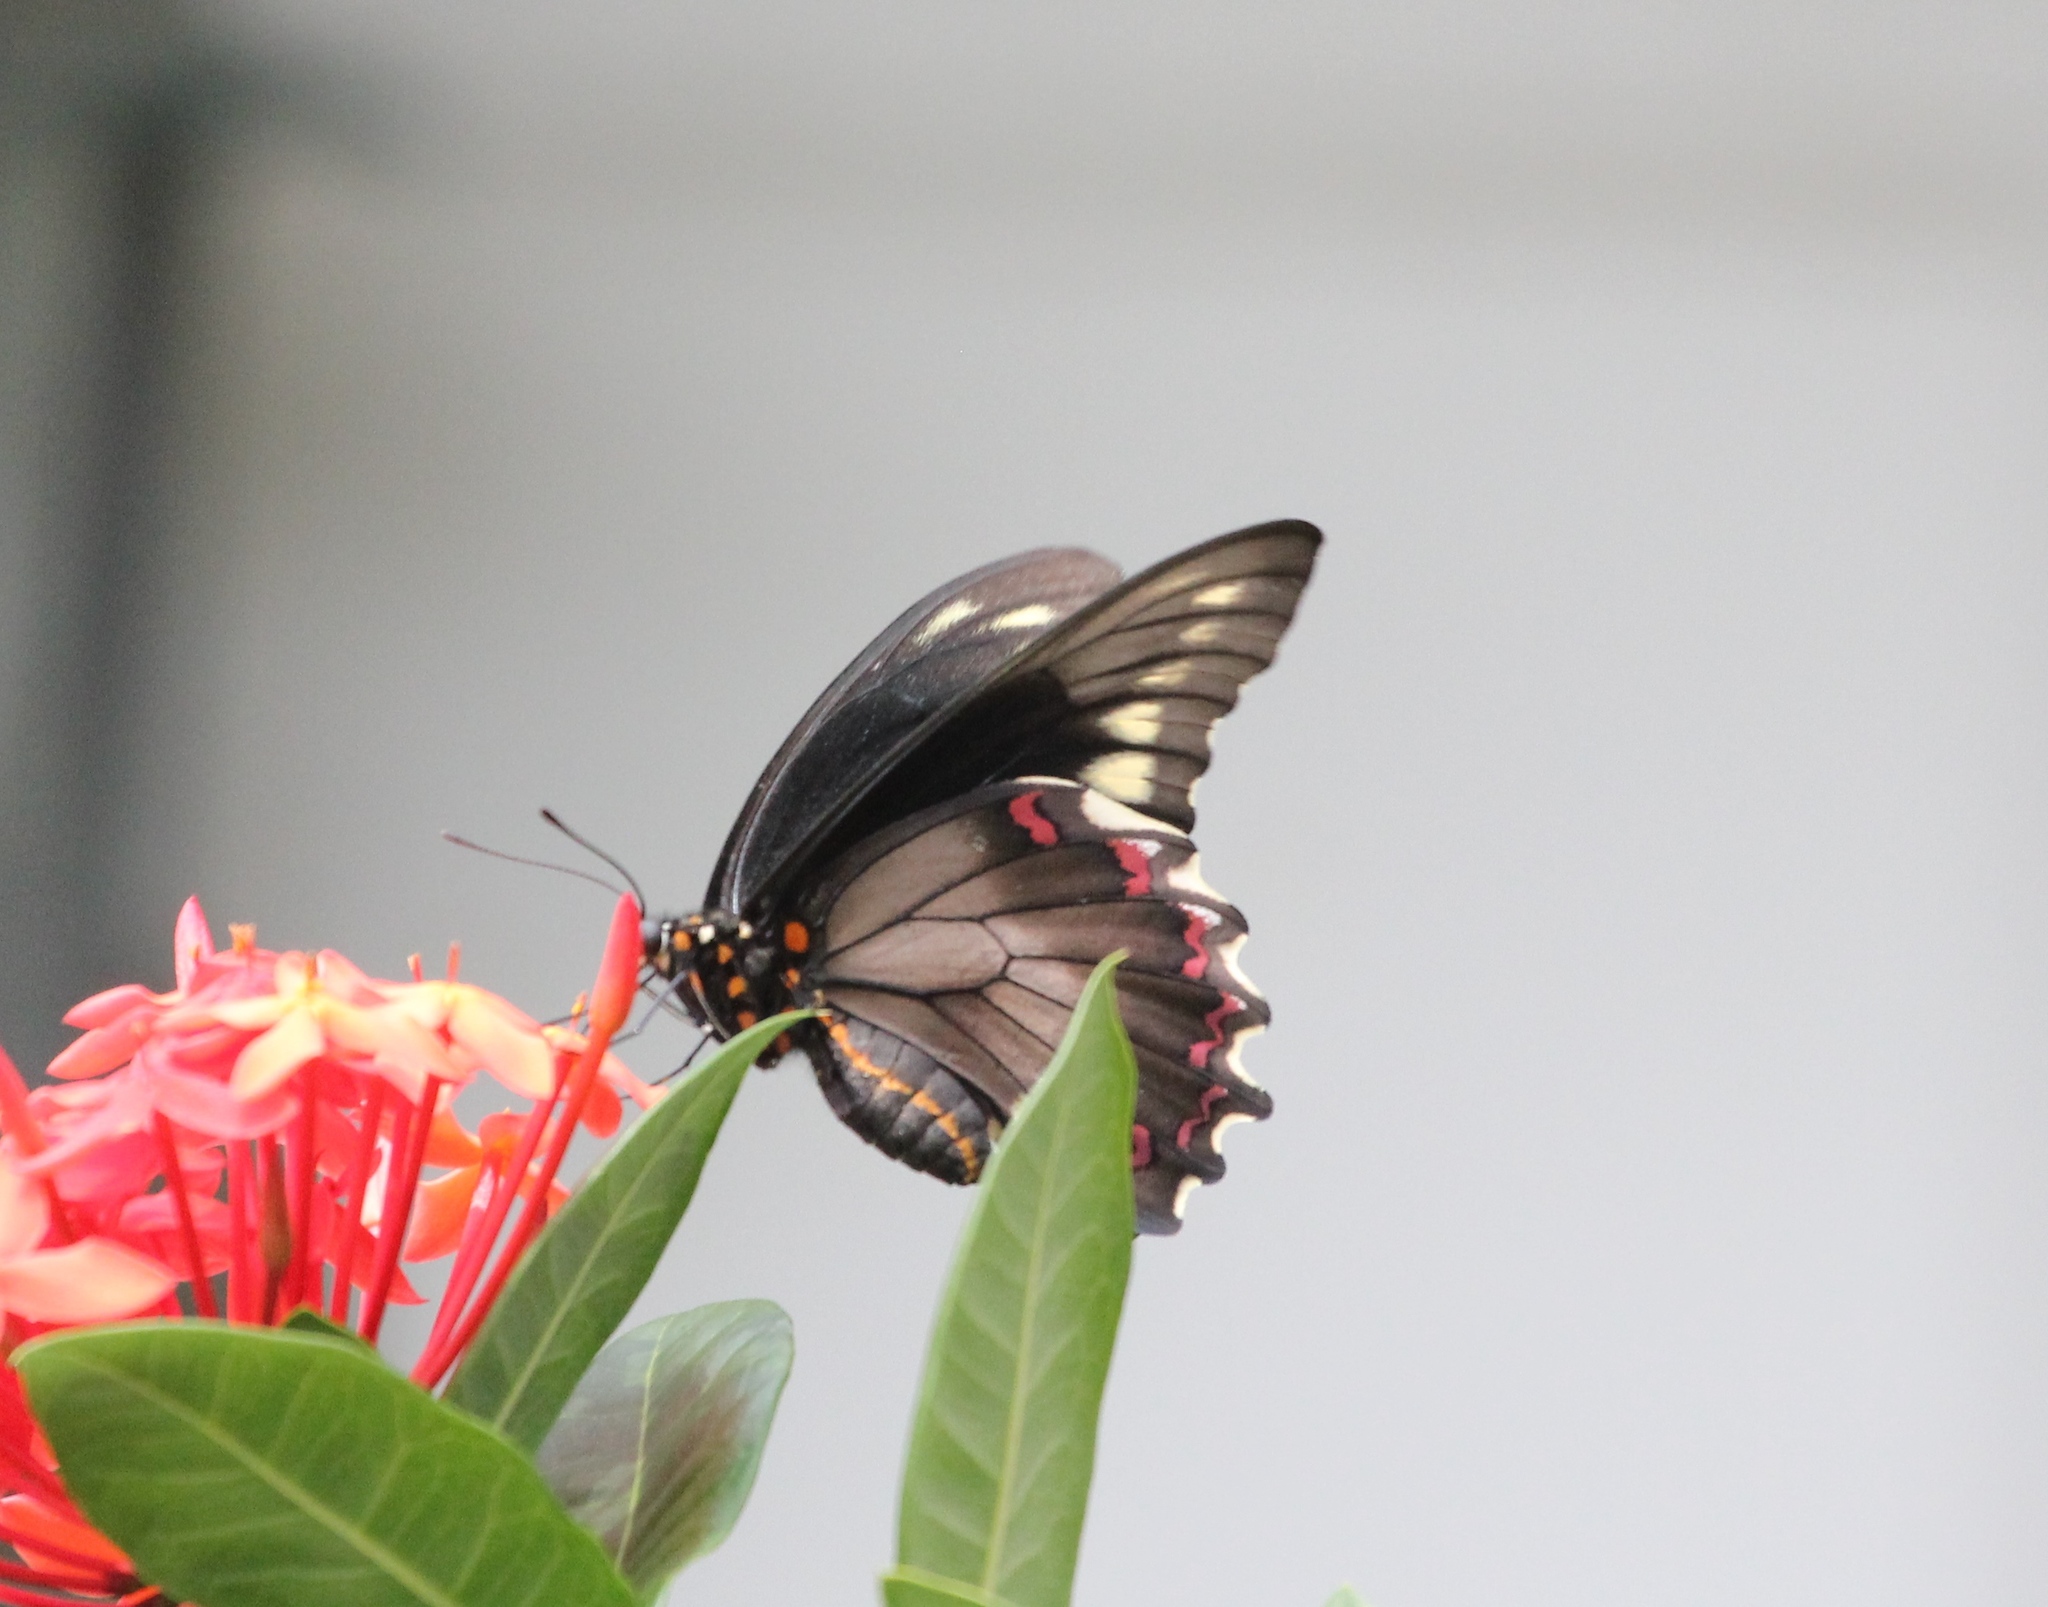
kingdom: Animalia
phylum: Arthropoda
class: Insecta
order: Lepidoptera
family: Papilionidae
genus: Battus
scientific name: Battus polydamas
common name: Polydamas swallowtail
